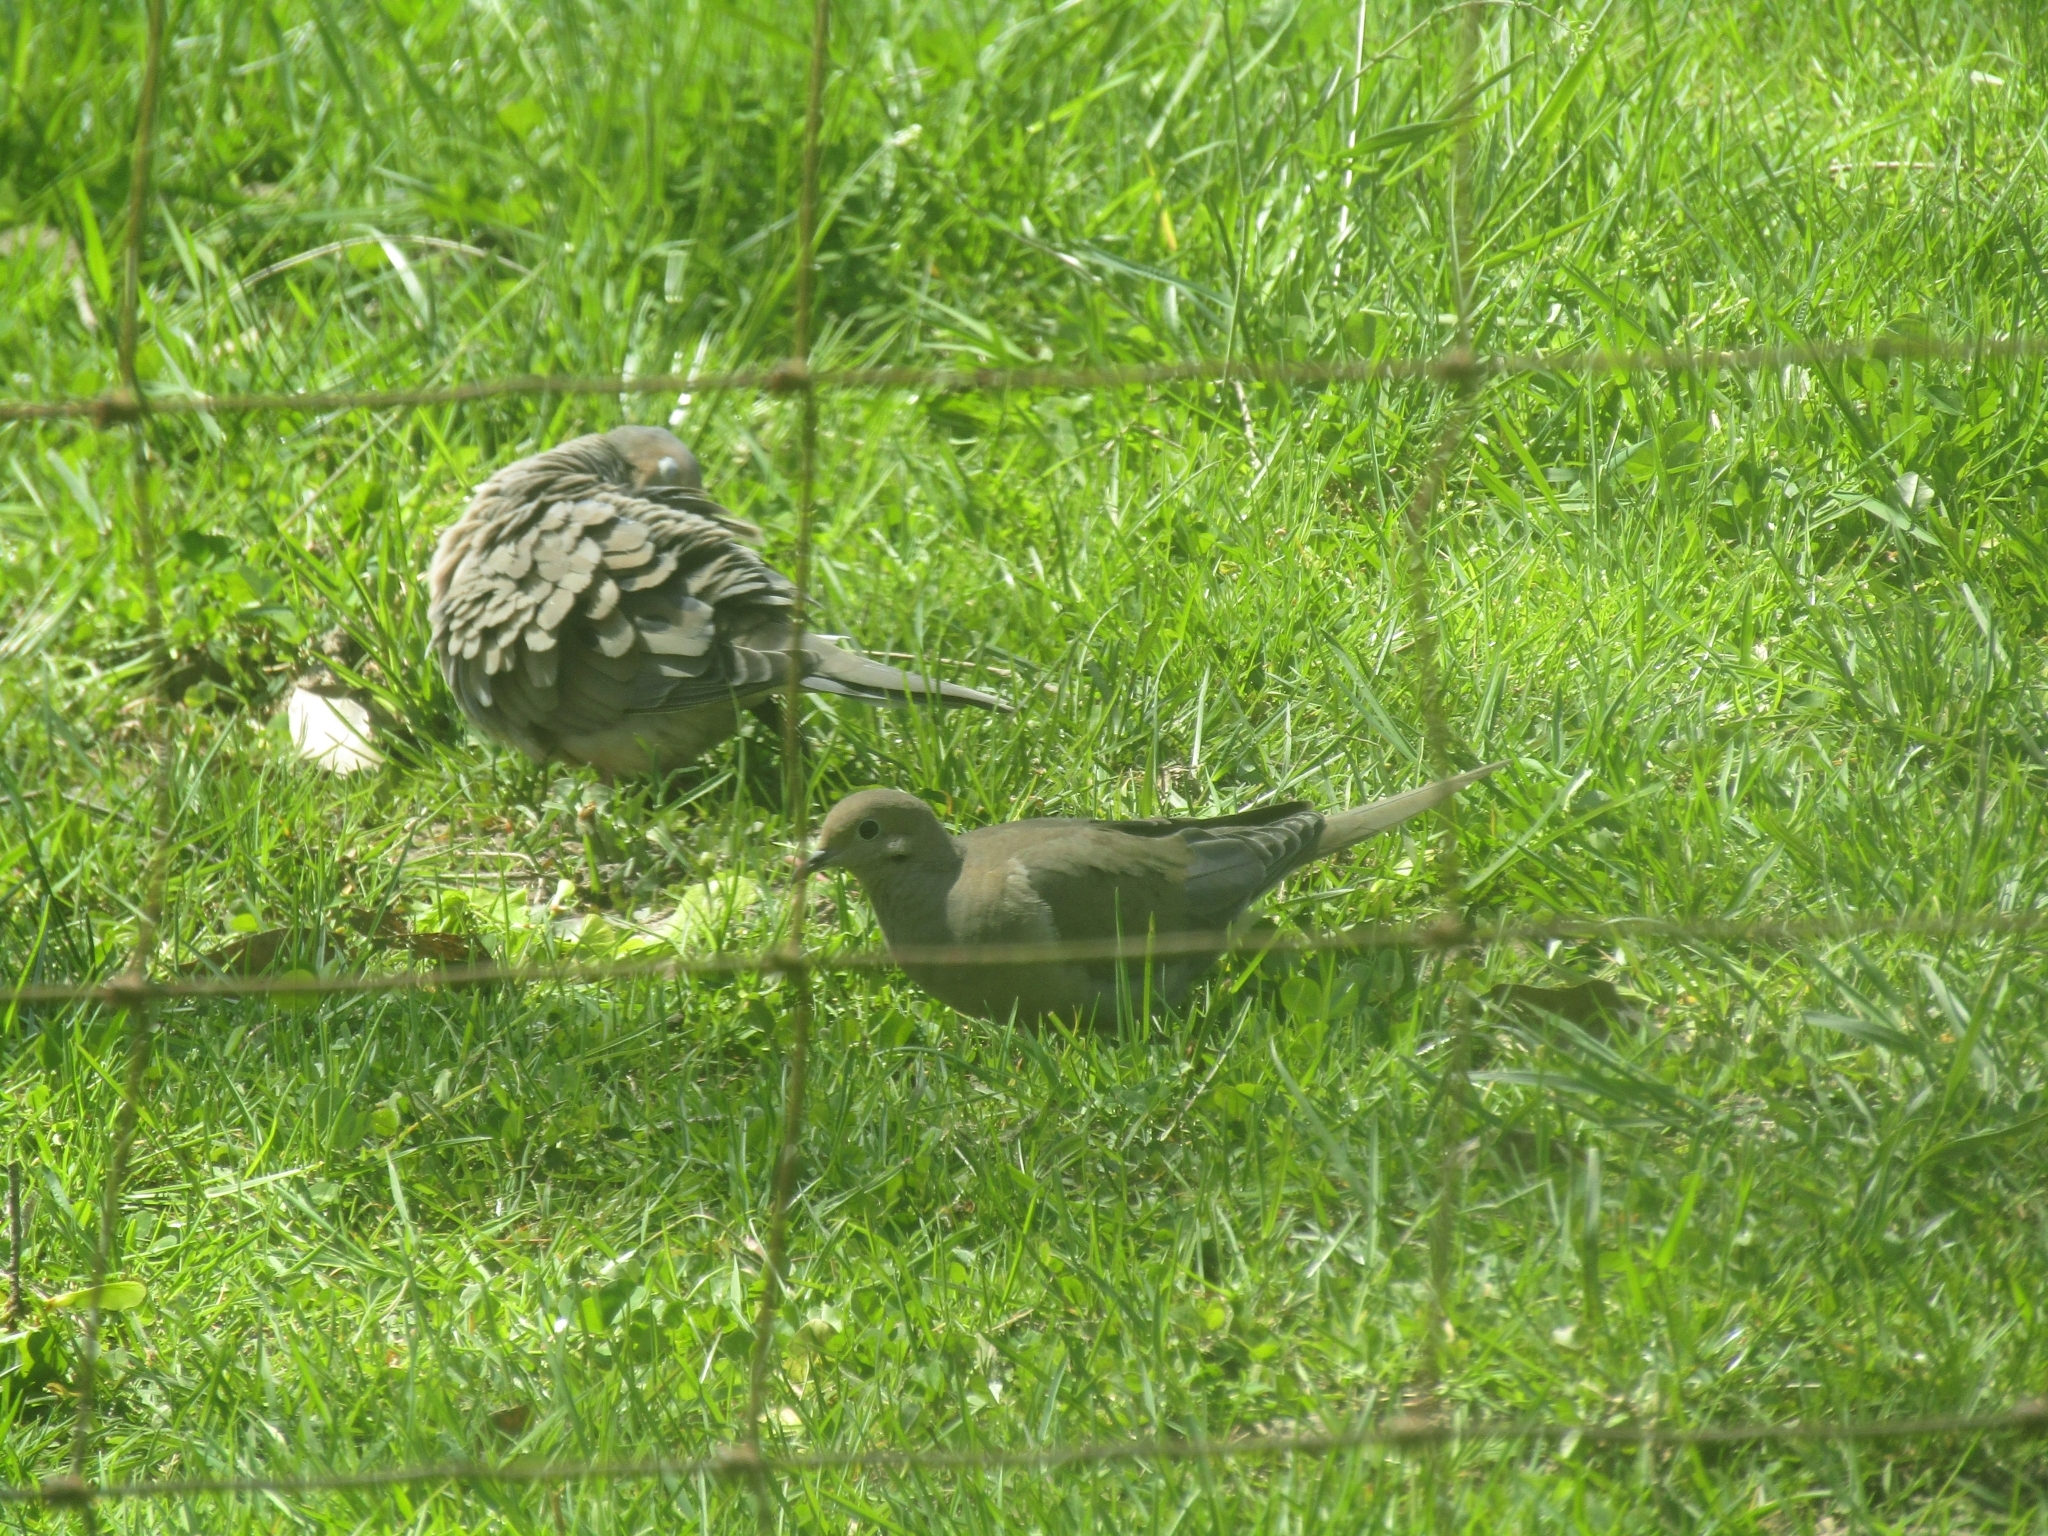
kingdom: Animalia
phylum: Chordata
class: Aves
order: Columbiformes
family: Columbidae
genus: Zenaida
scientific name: Zenaida macroura
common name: Mourning dove
